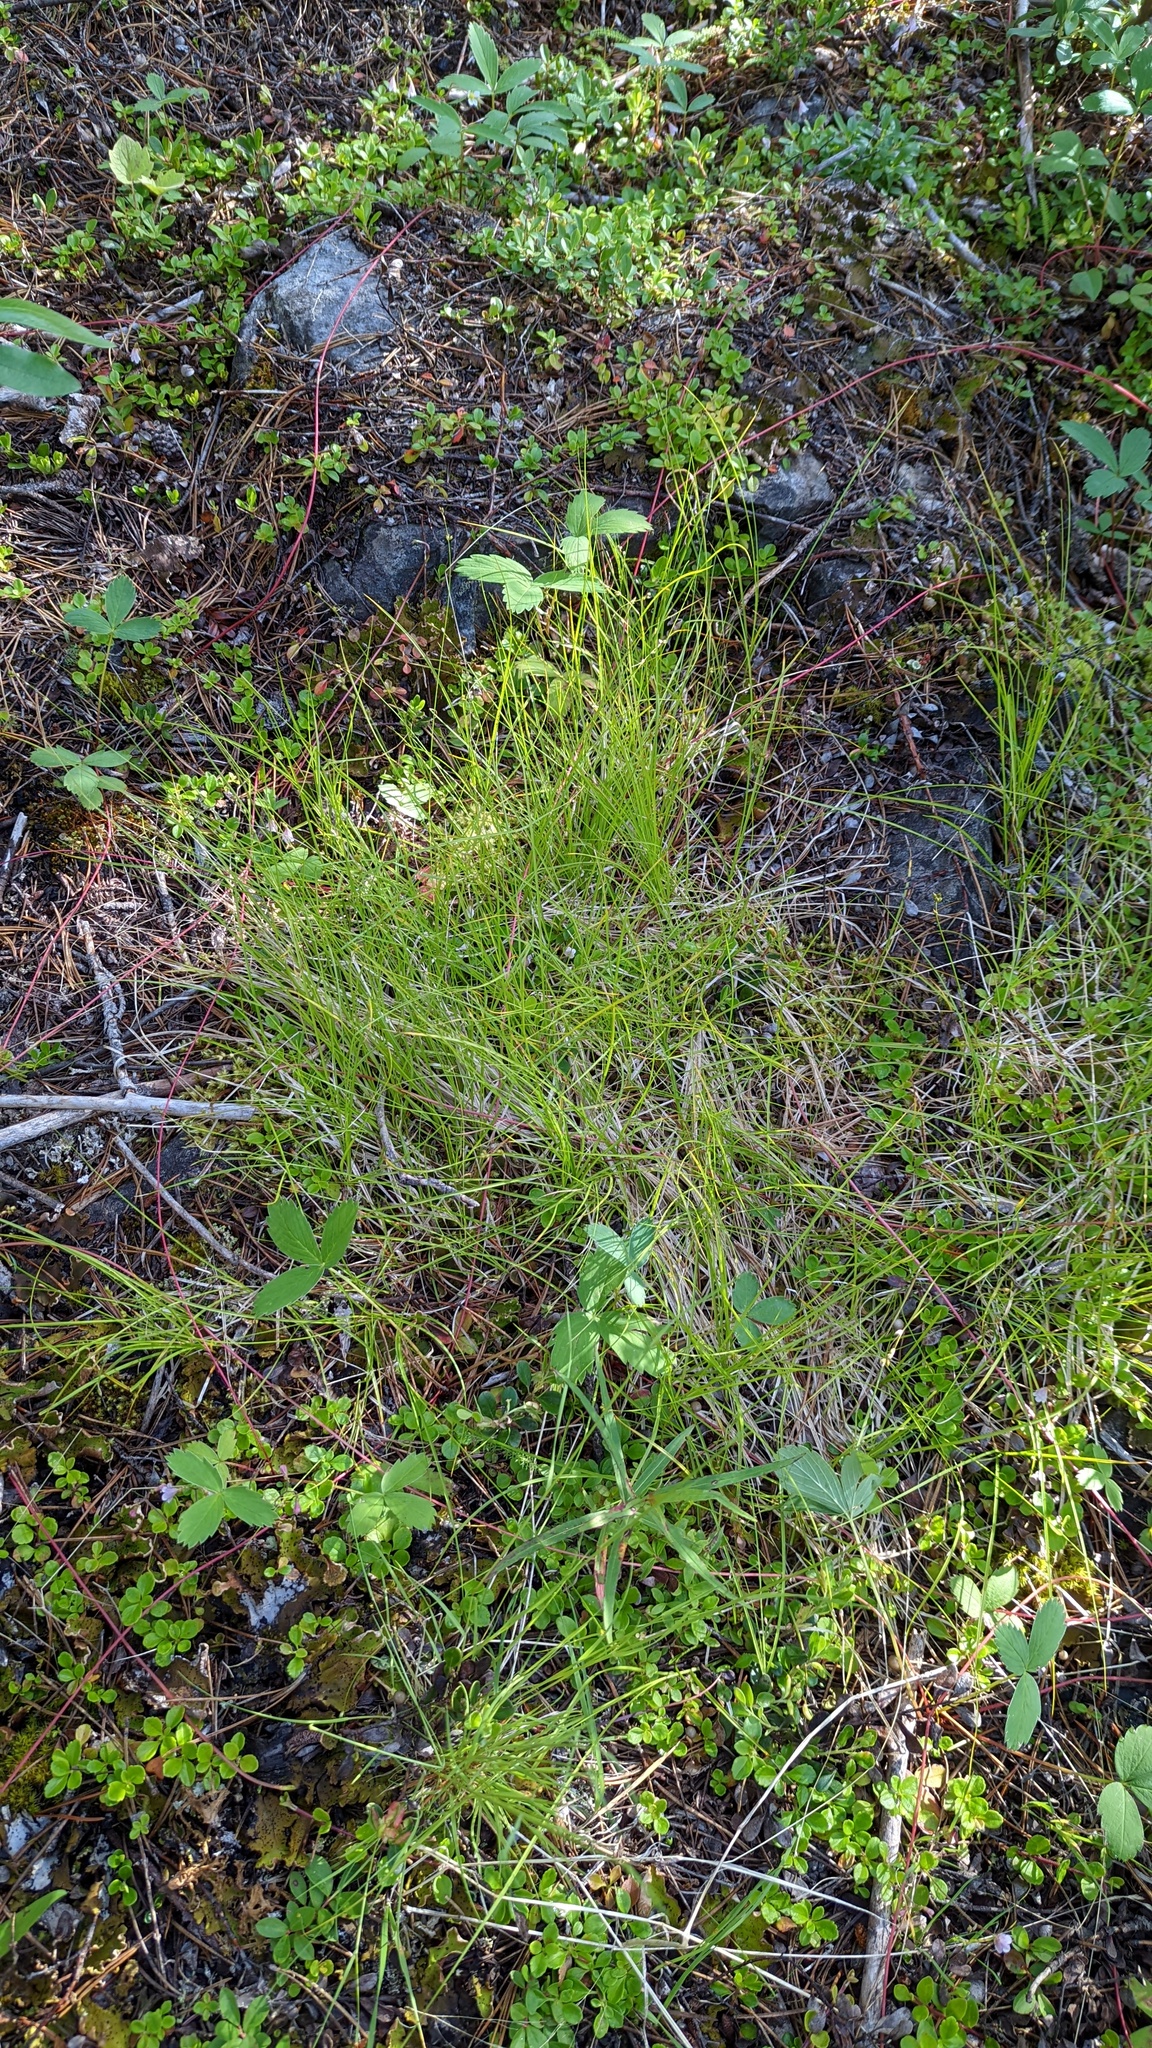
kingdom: Plantae
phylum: Tracheophyta
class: Liliopsida
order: Poales
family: Cyperaceae
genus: Carex
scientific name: Carex disperma
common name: Short-leaved sedge
